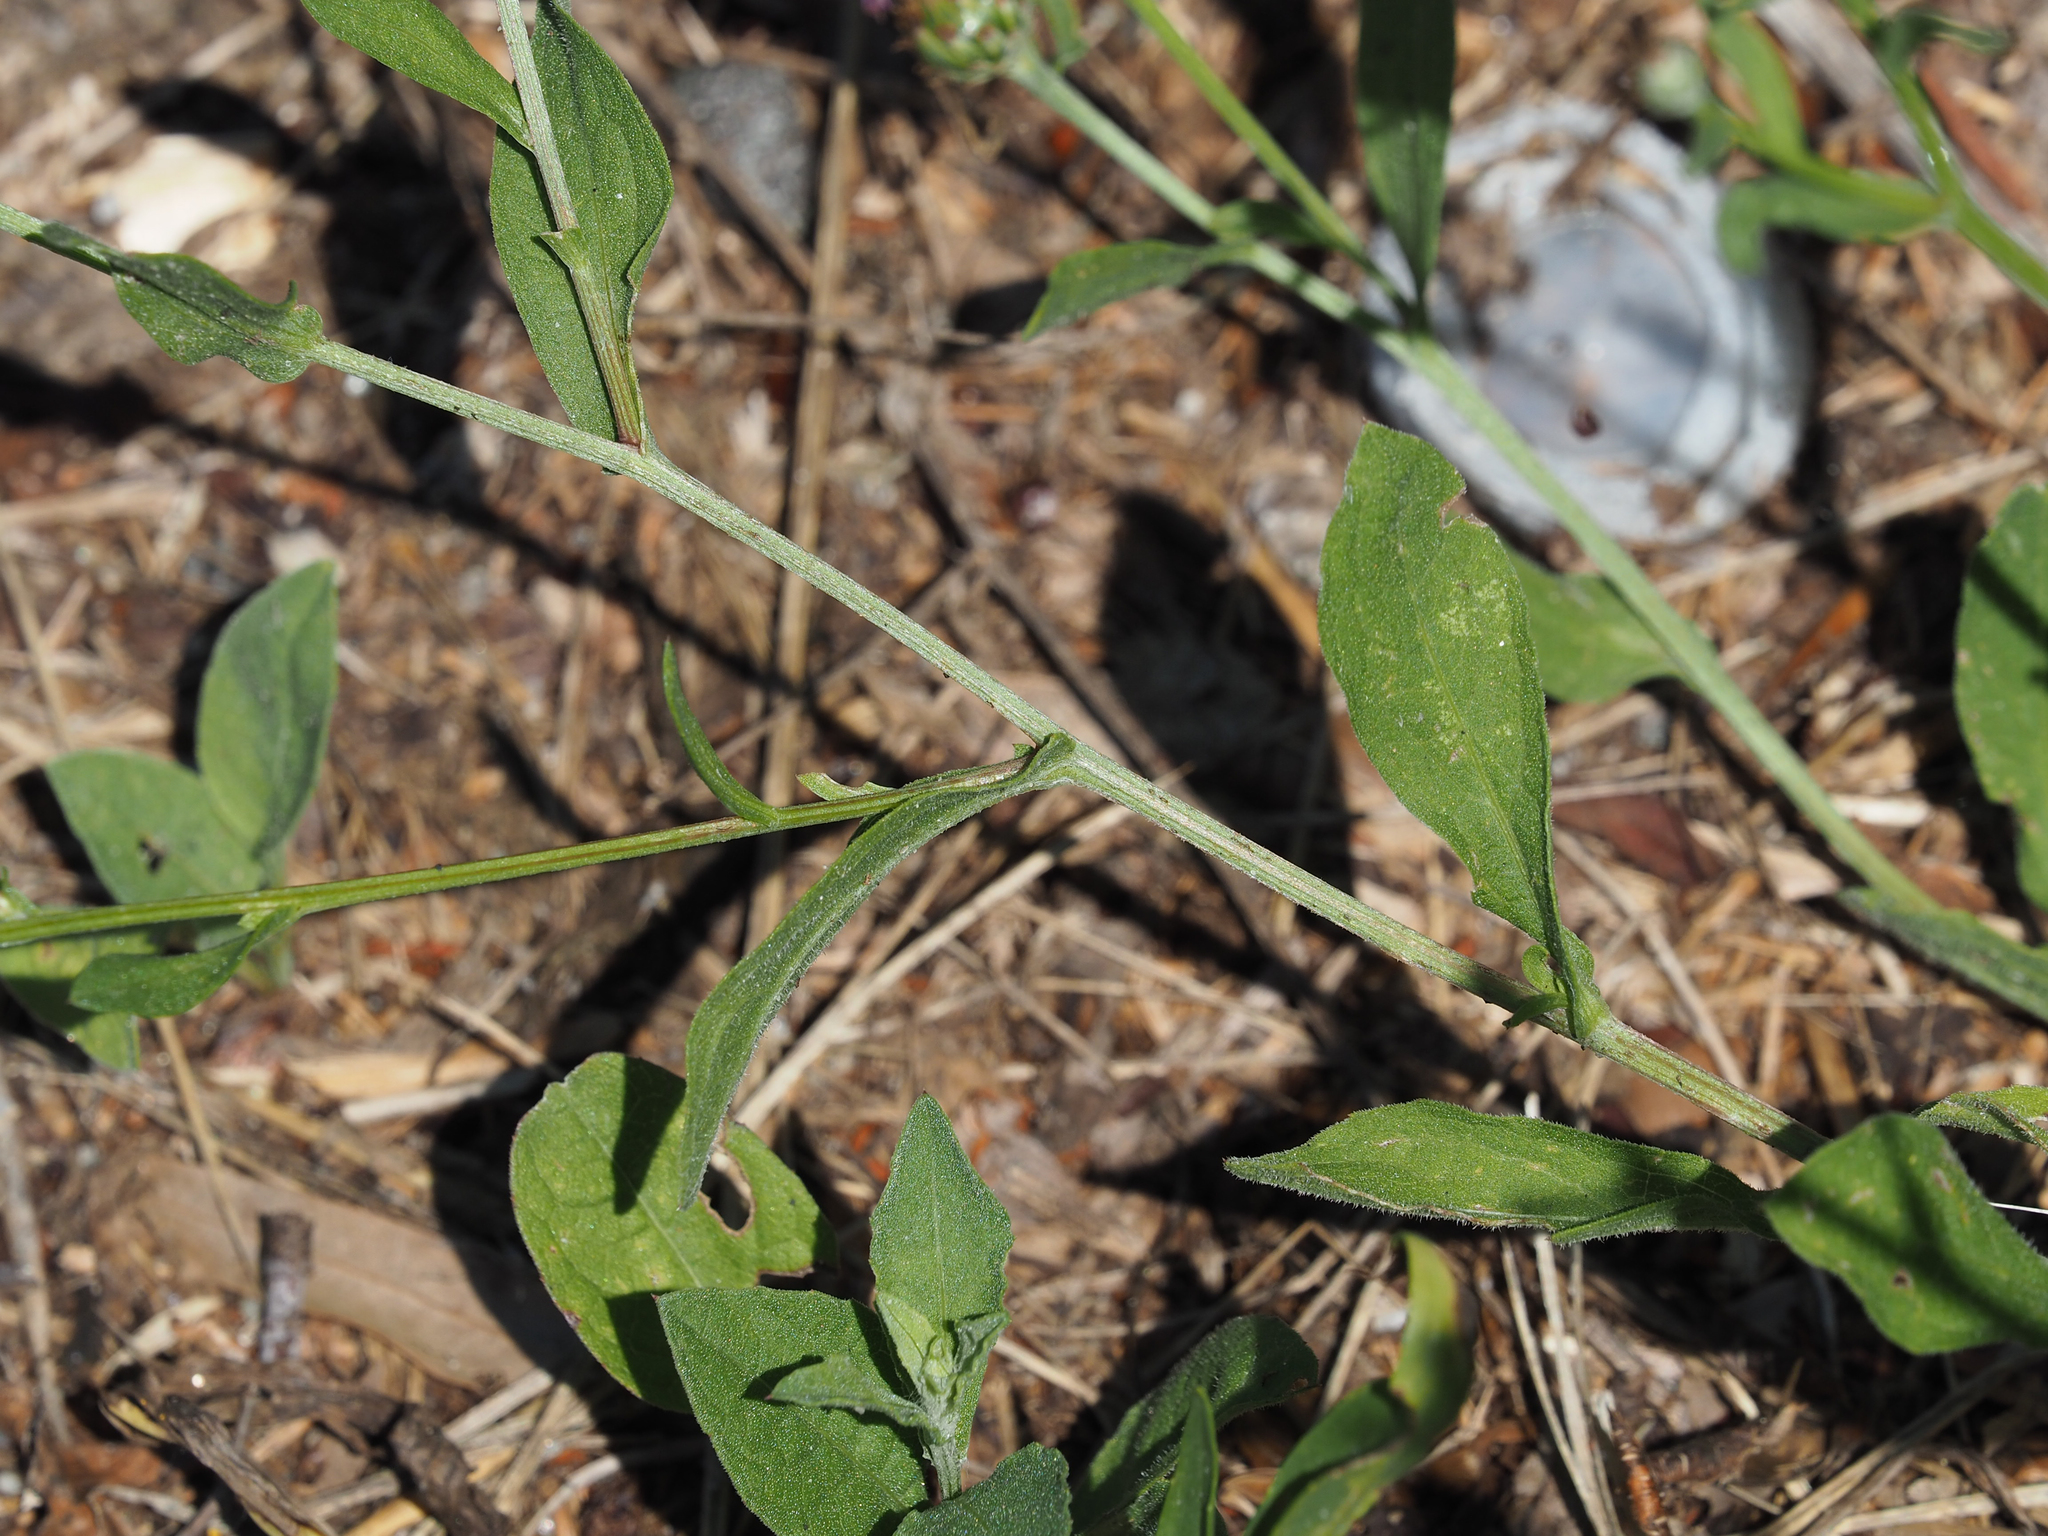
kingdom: Plantae
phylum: Tracheophyta
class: Magnoliopsida
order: Asterales
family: Asteraceae
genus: Centaurea
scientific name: Centaurea nigrescens
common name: Tyrol knapweed
